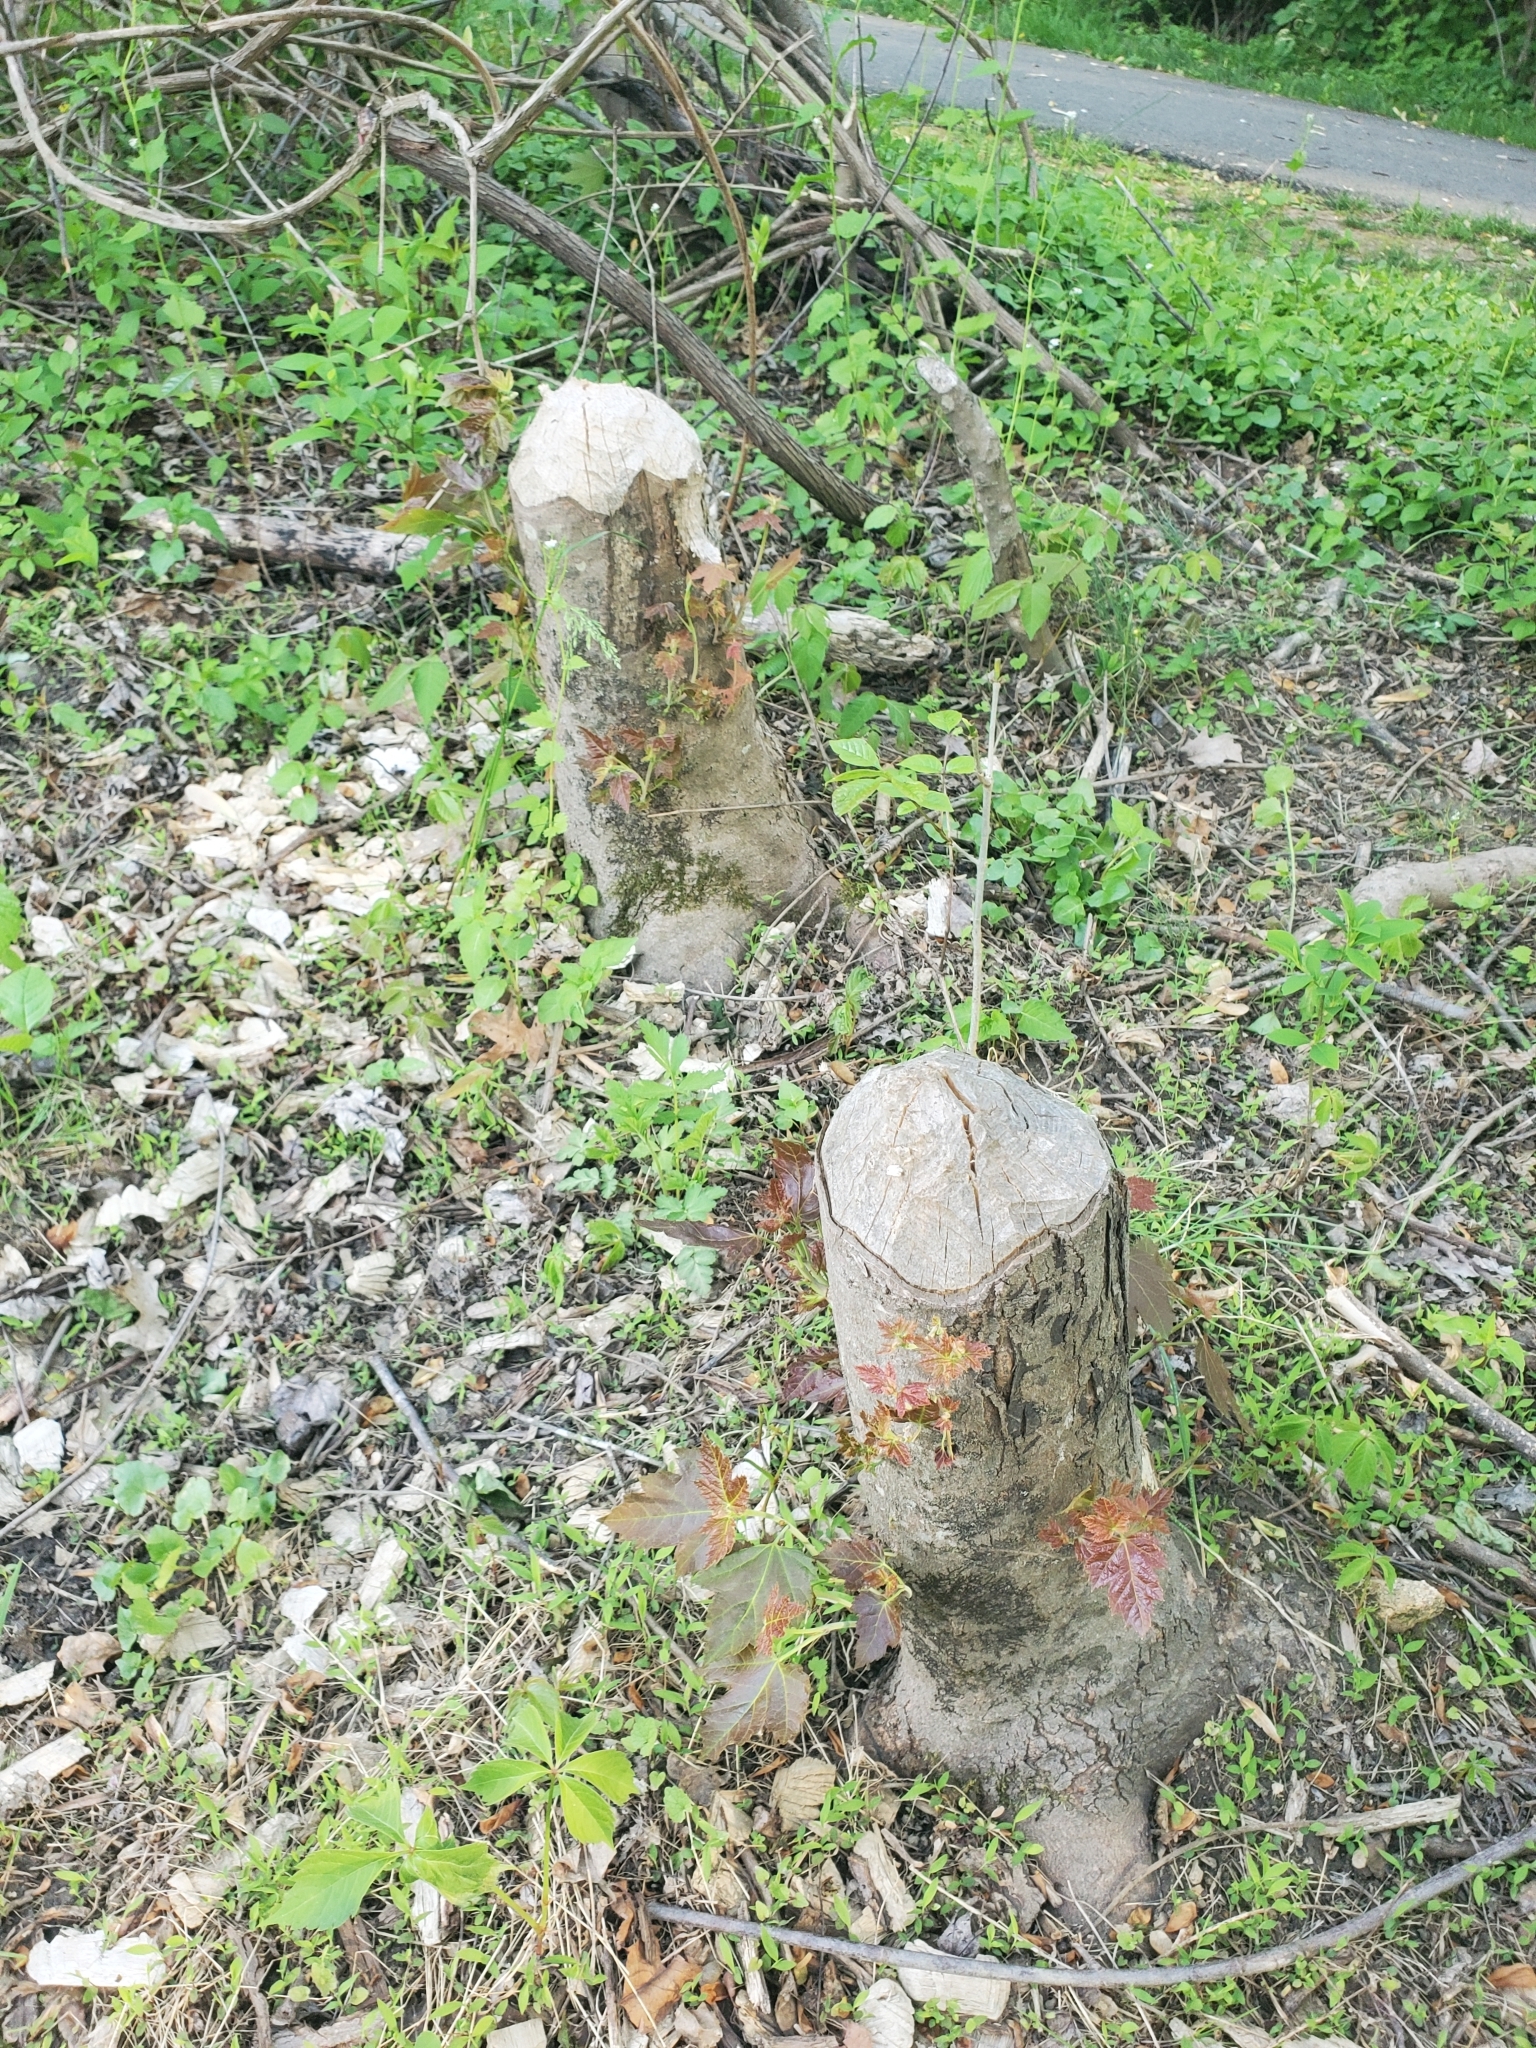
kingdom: Animalia
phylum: Chordata
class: Mammalia
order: Rodentia
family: Castoridae
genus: Castor
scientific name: Castor canadensis
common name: American beaver
